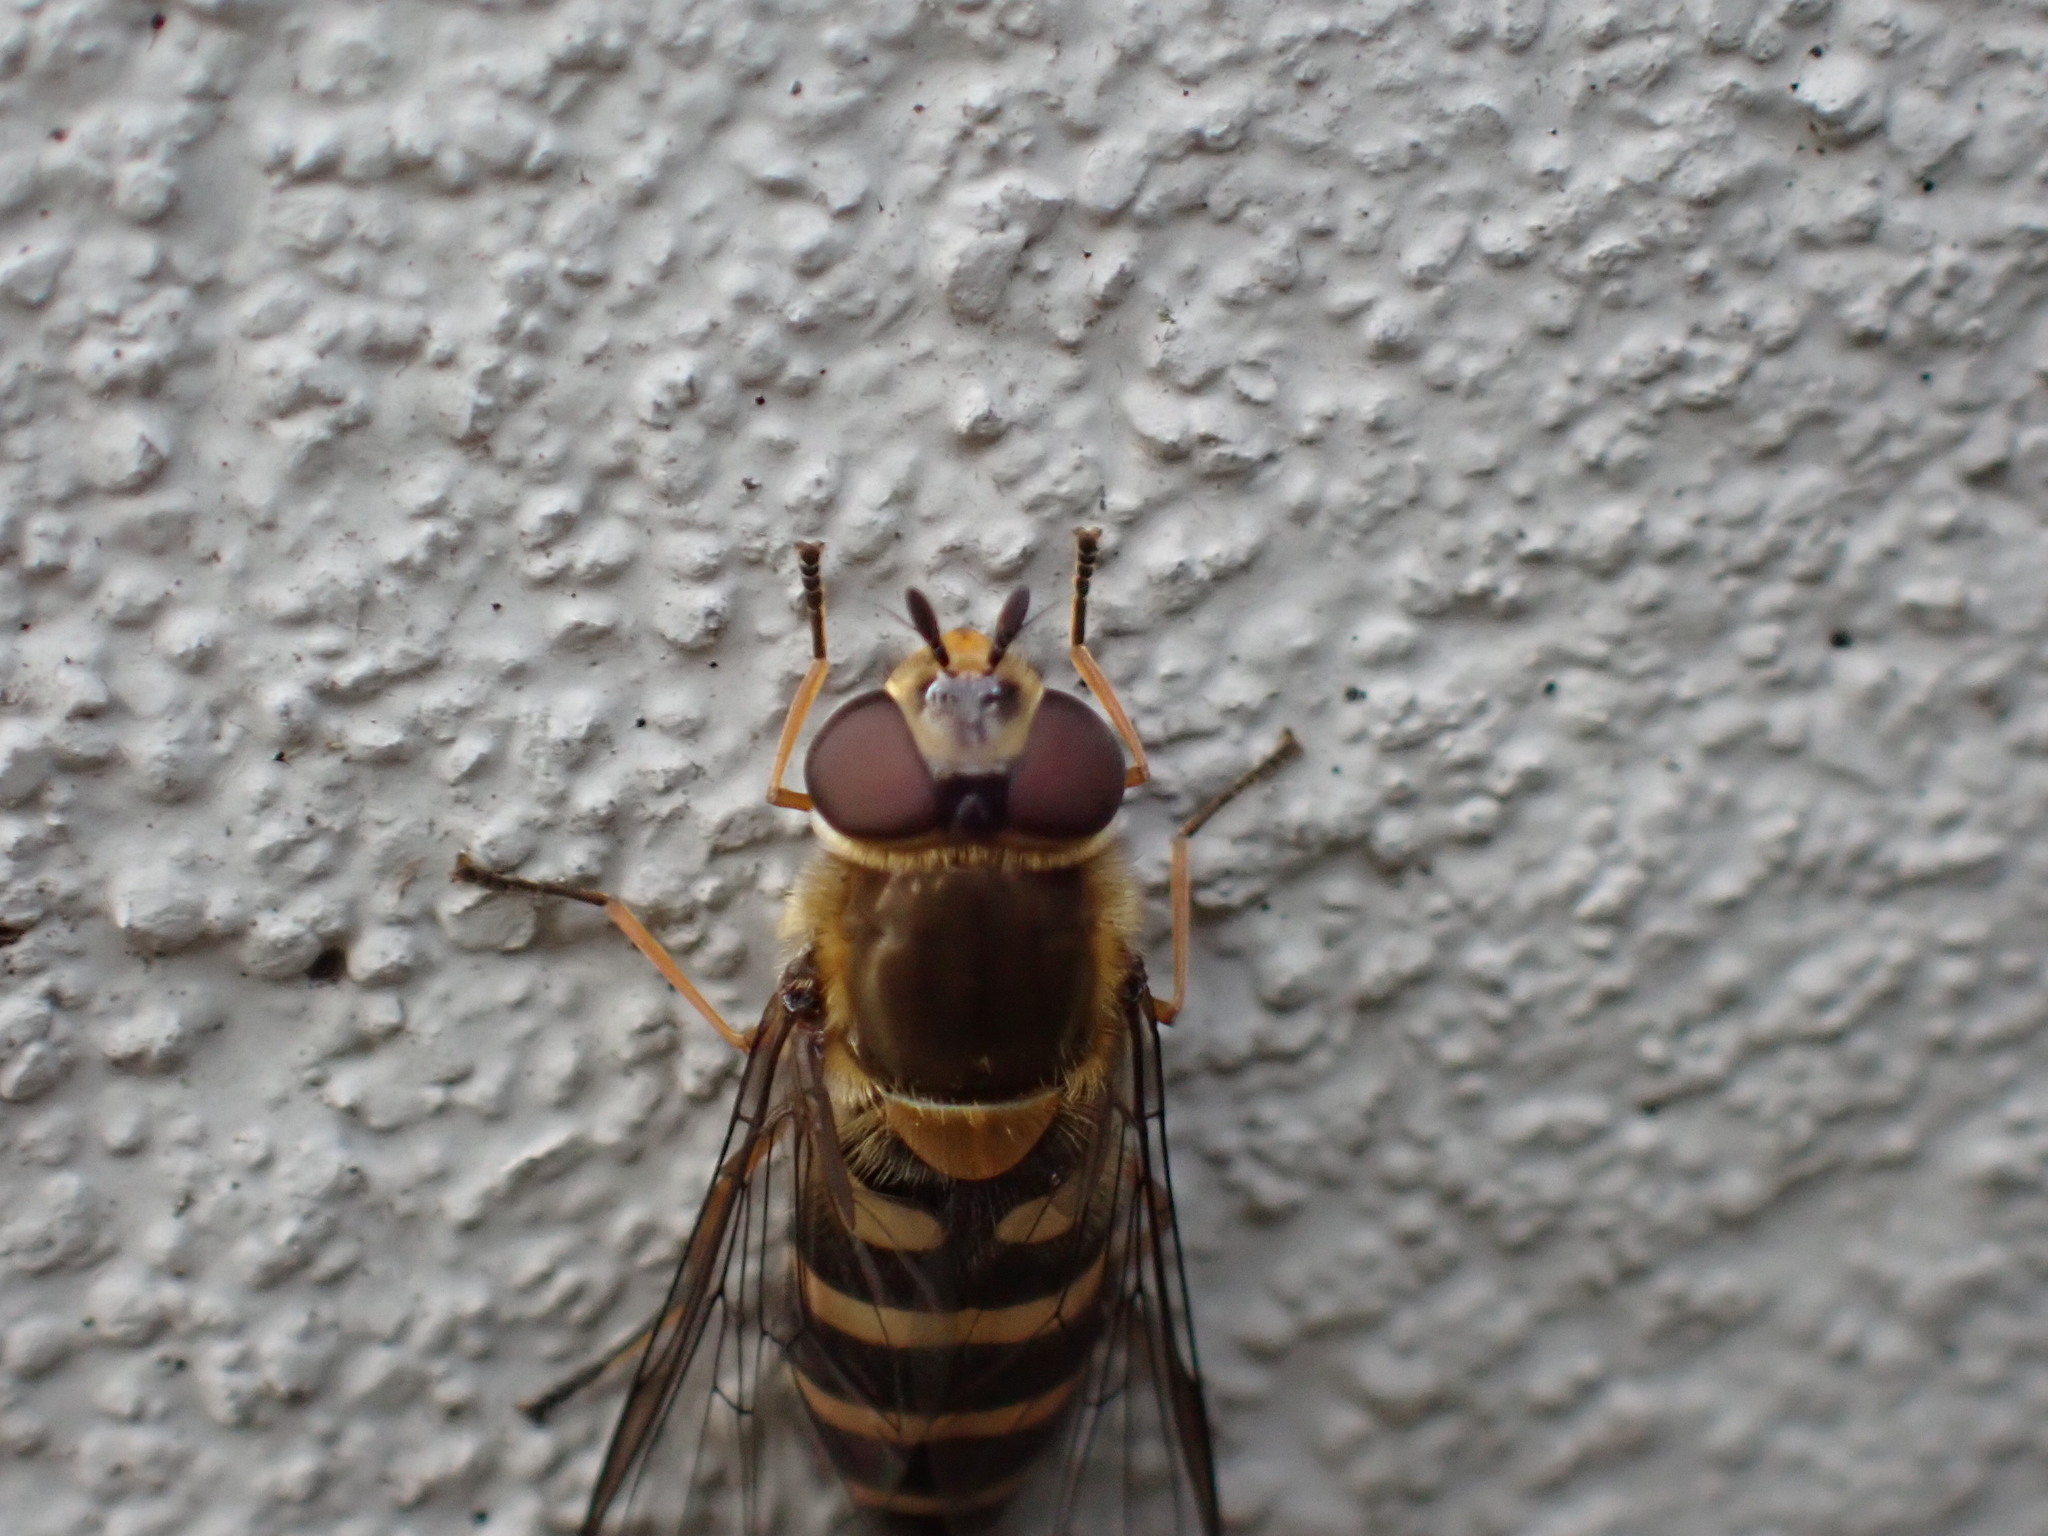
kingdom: Animalia
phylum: Arthropoda
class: Insecta
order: Diptera
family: Syrphidae
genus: Syrphus
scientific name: Syrphus torvus
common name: Hairy-eyed flower fly
